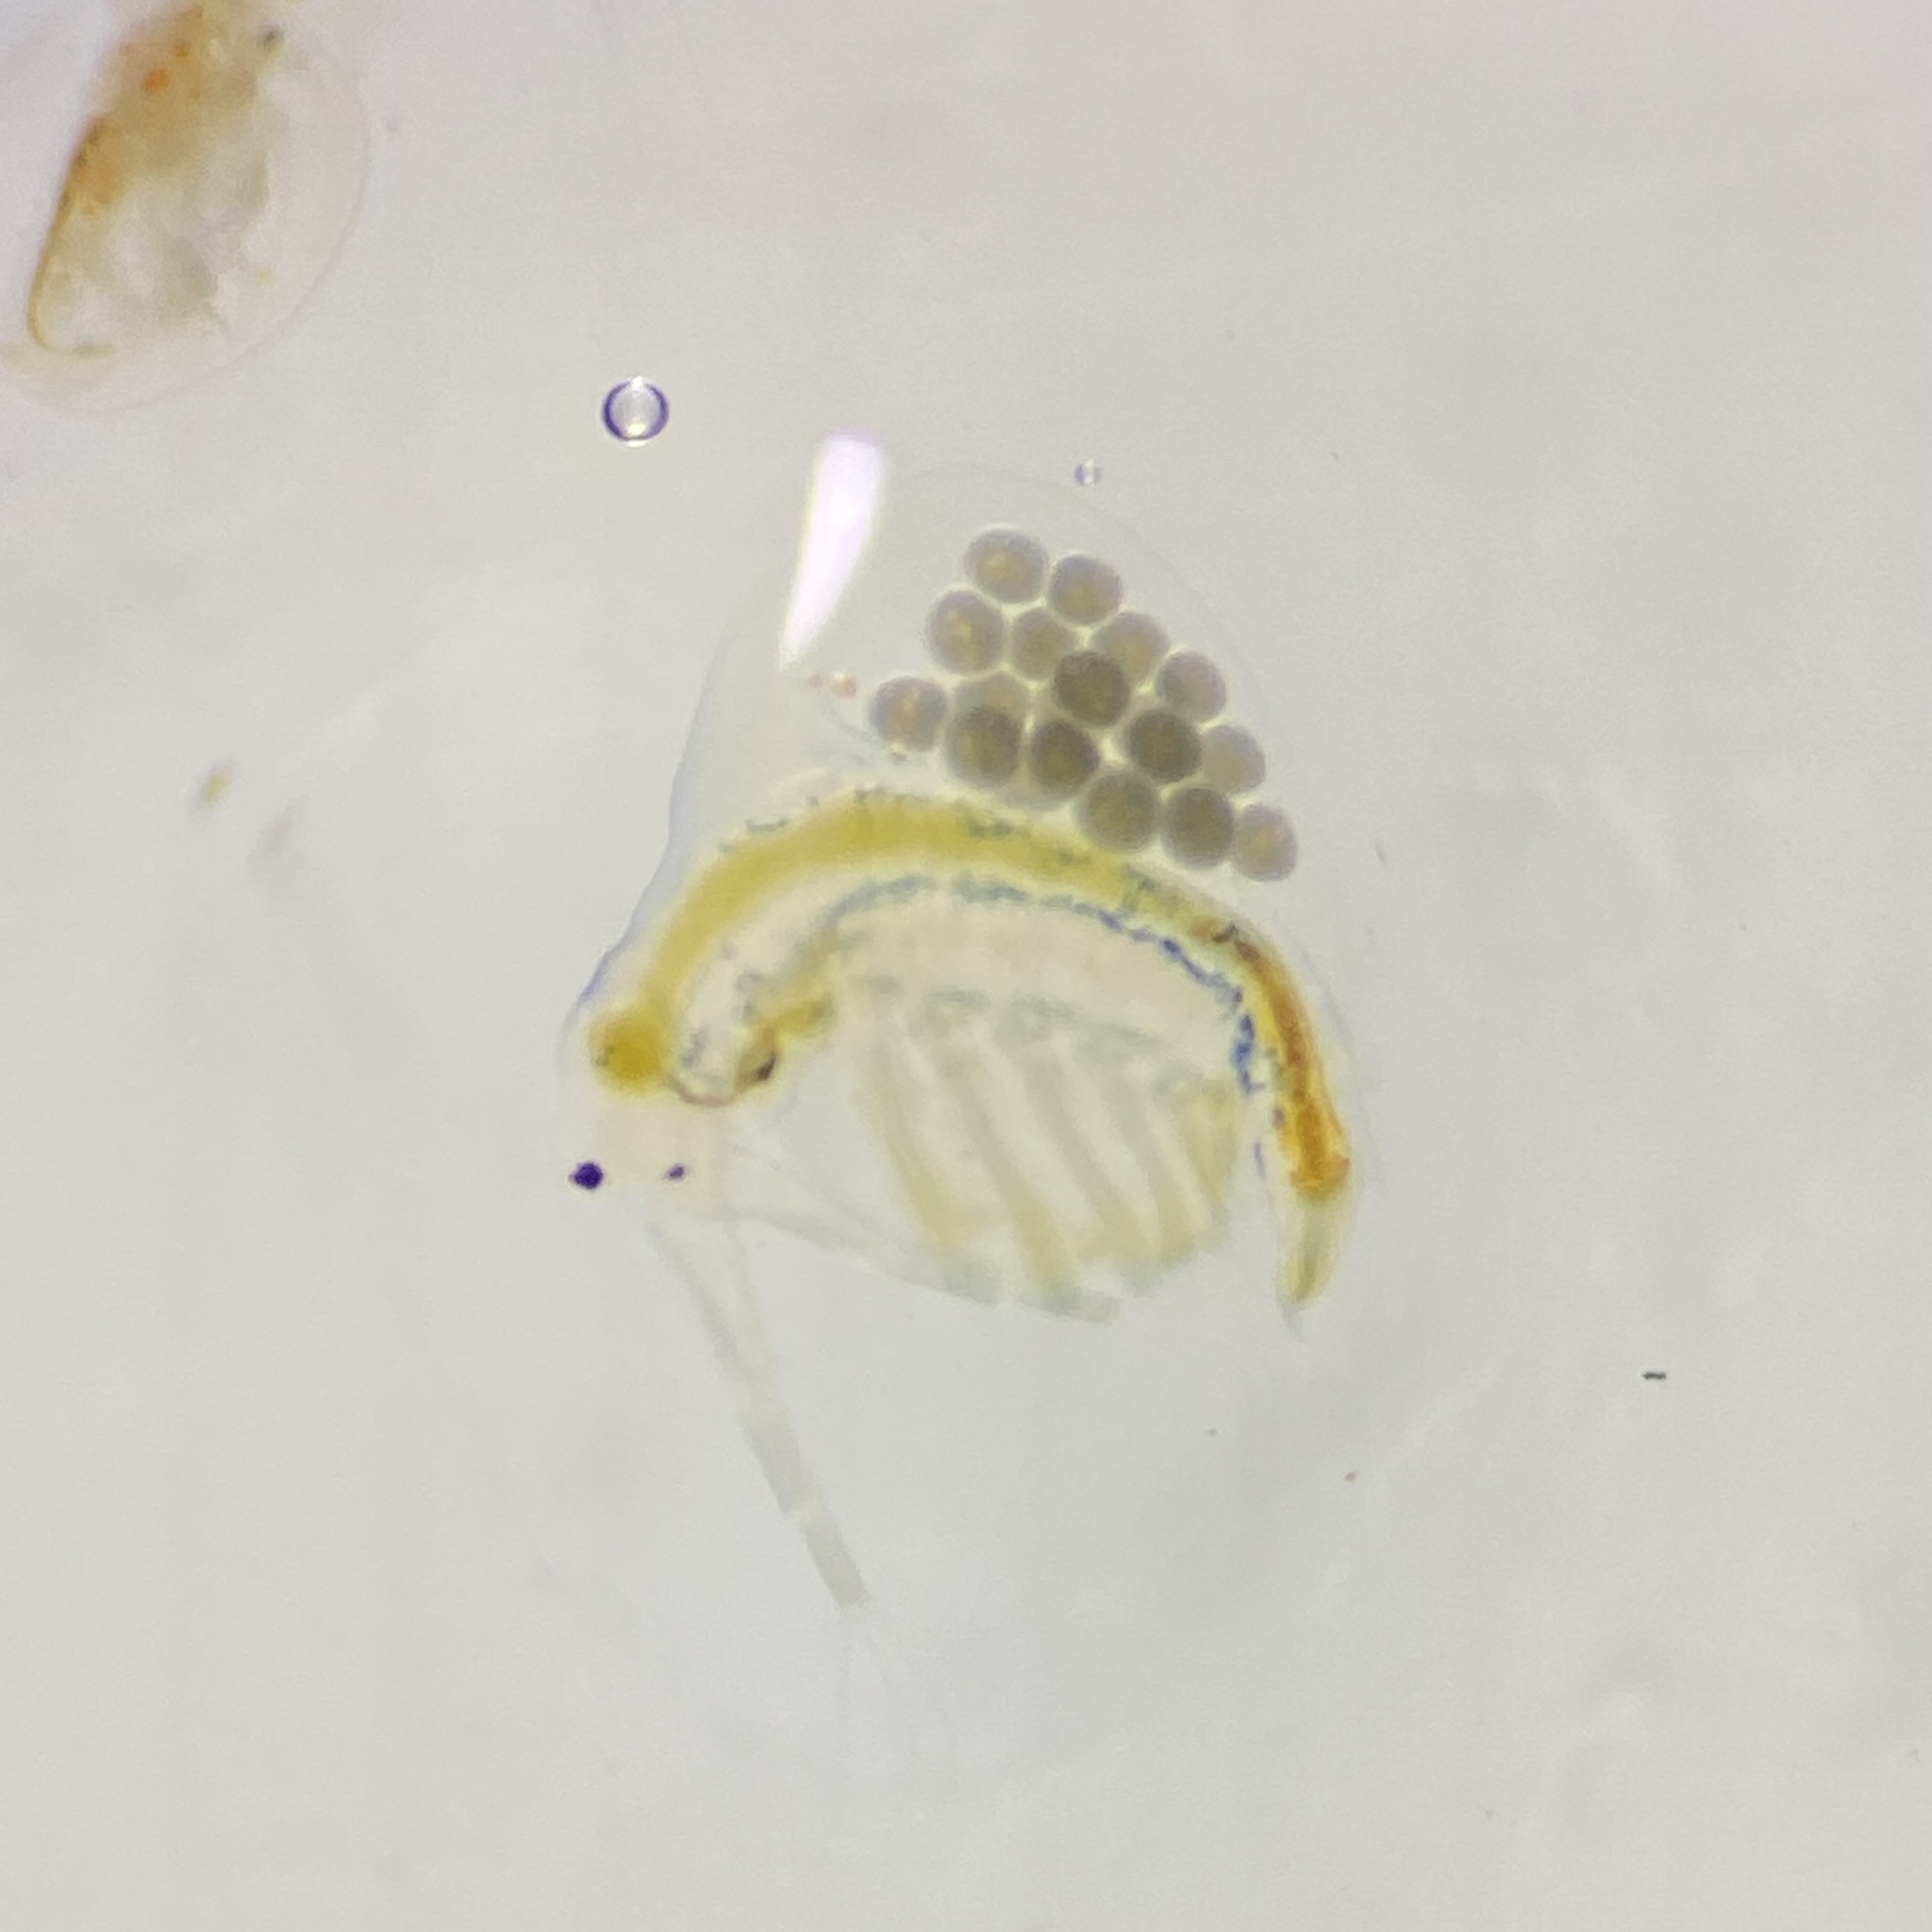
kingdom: Animalia
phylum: Arthropoda
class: Branchiopoda
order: Diplostraca
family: Holopediidae
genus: Holopedium
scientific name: Holopedium gibberum
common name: Jelly waterflea
